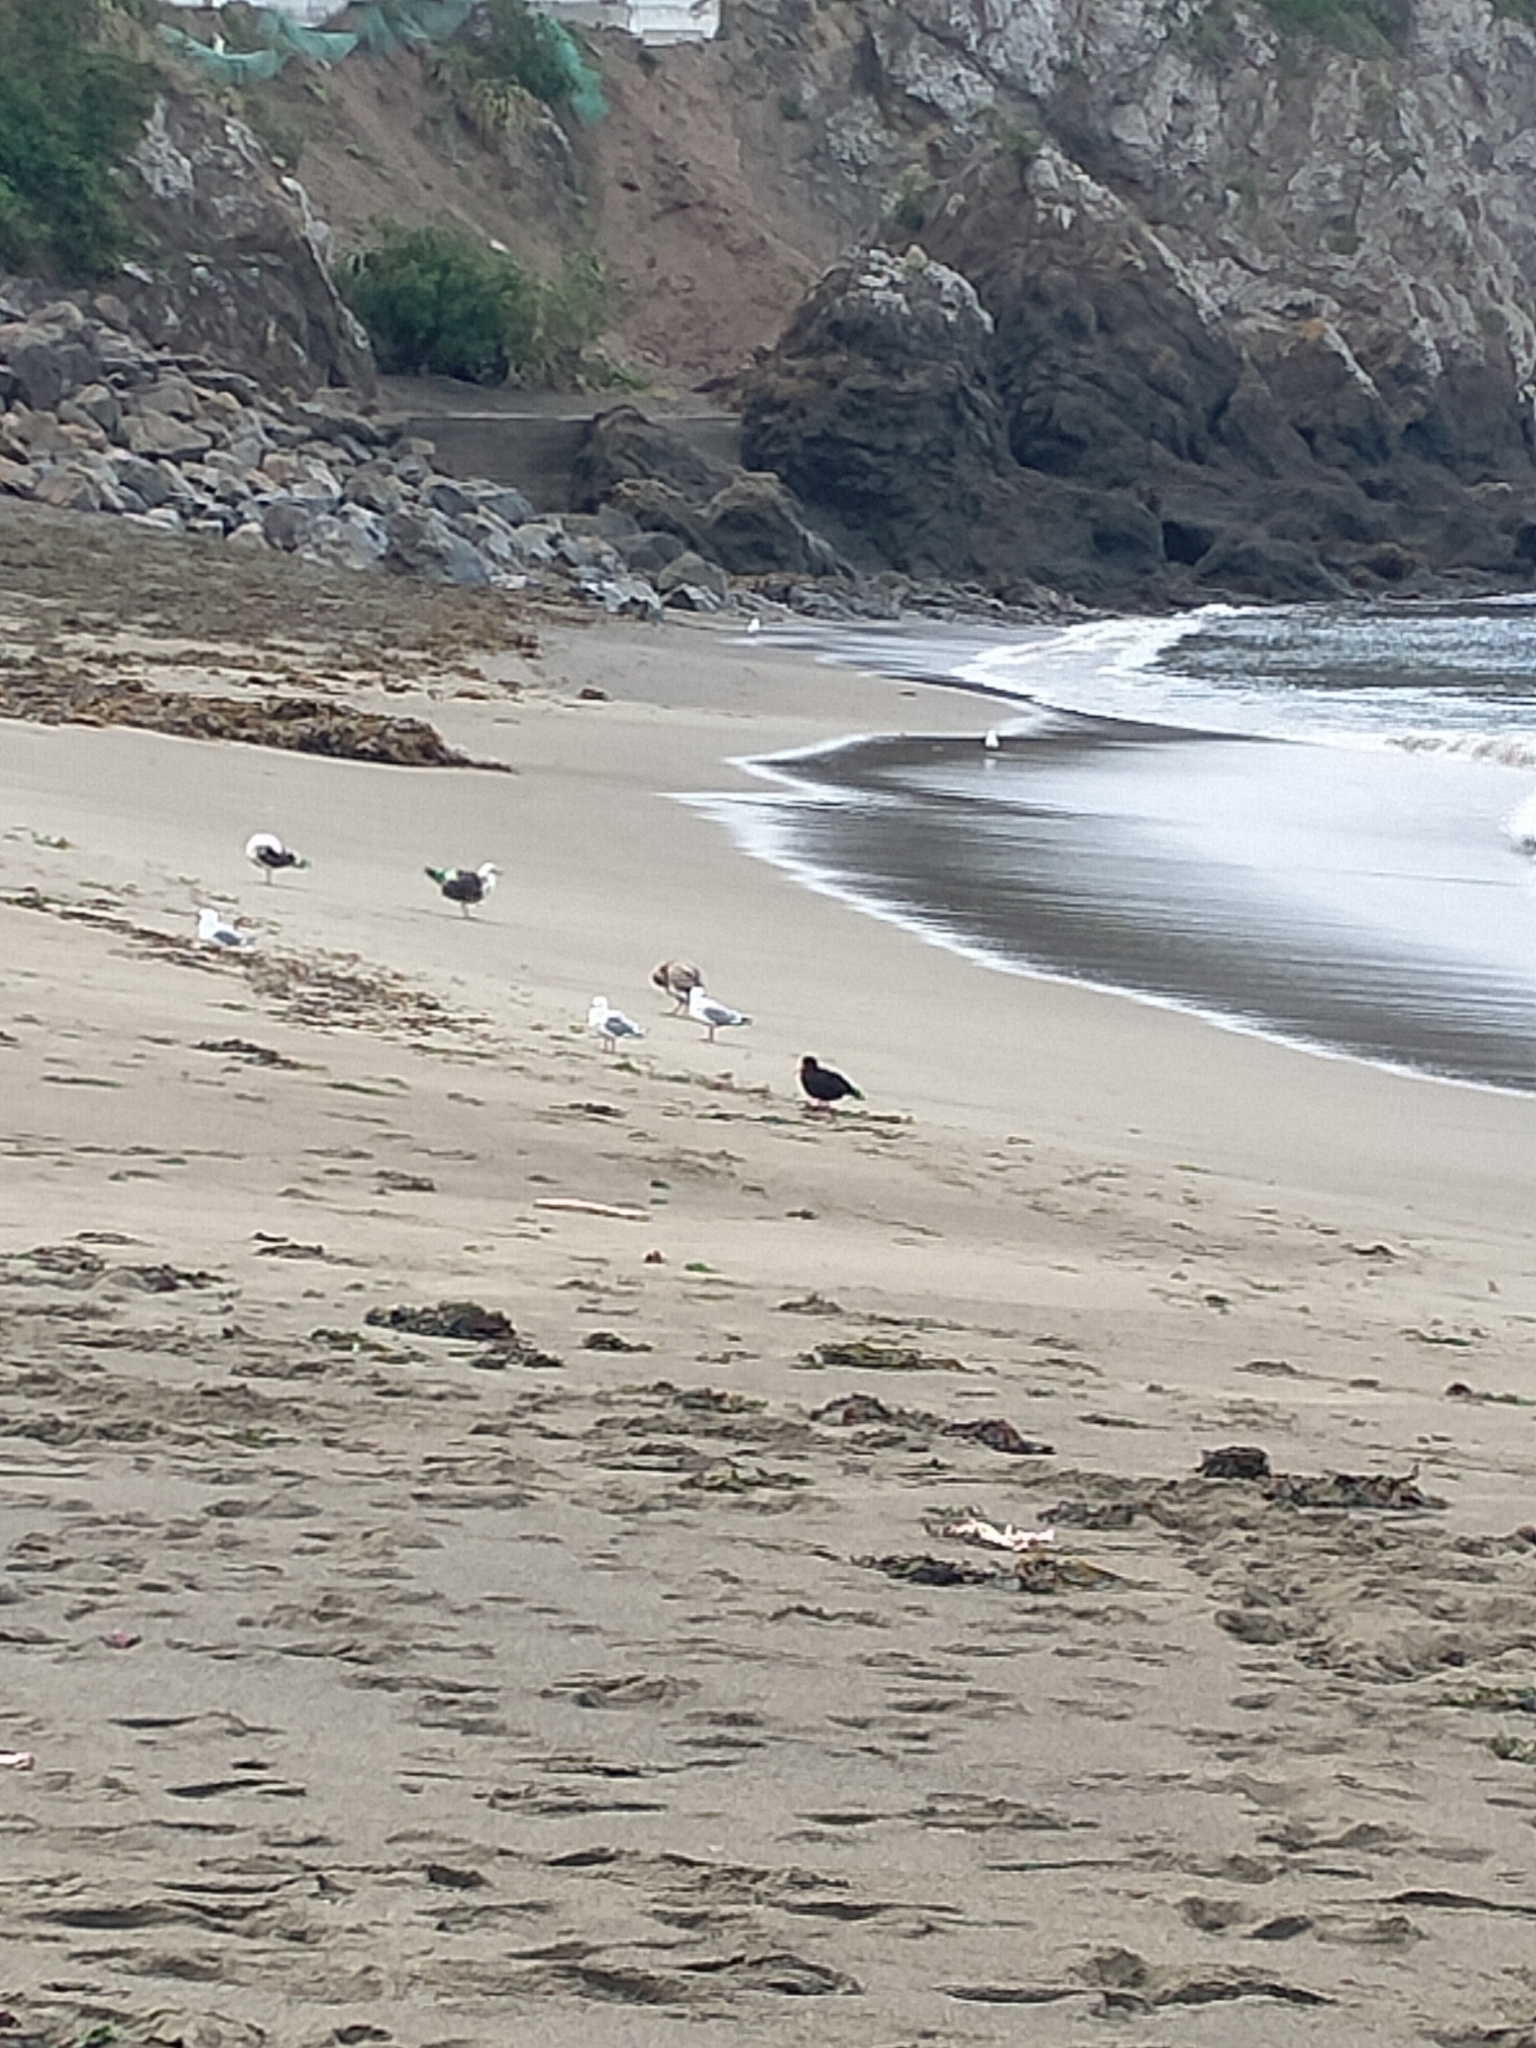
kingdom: Animalia
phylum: Chordata
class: Aves
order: Charadriiformes
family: Haematopodidae
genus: Haematopus
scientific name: Haematopus unicolor
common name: Variable oystercatcher
